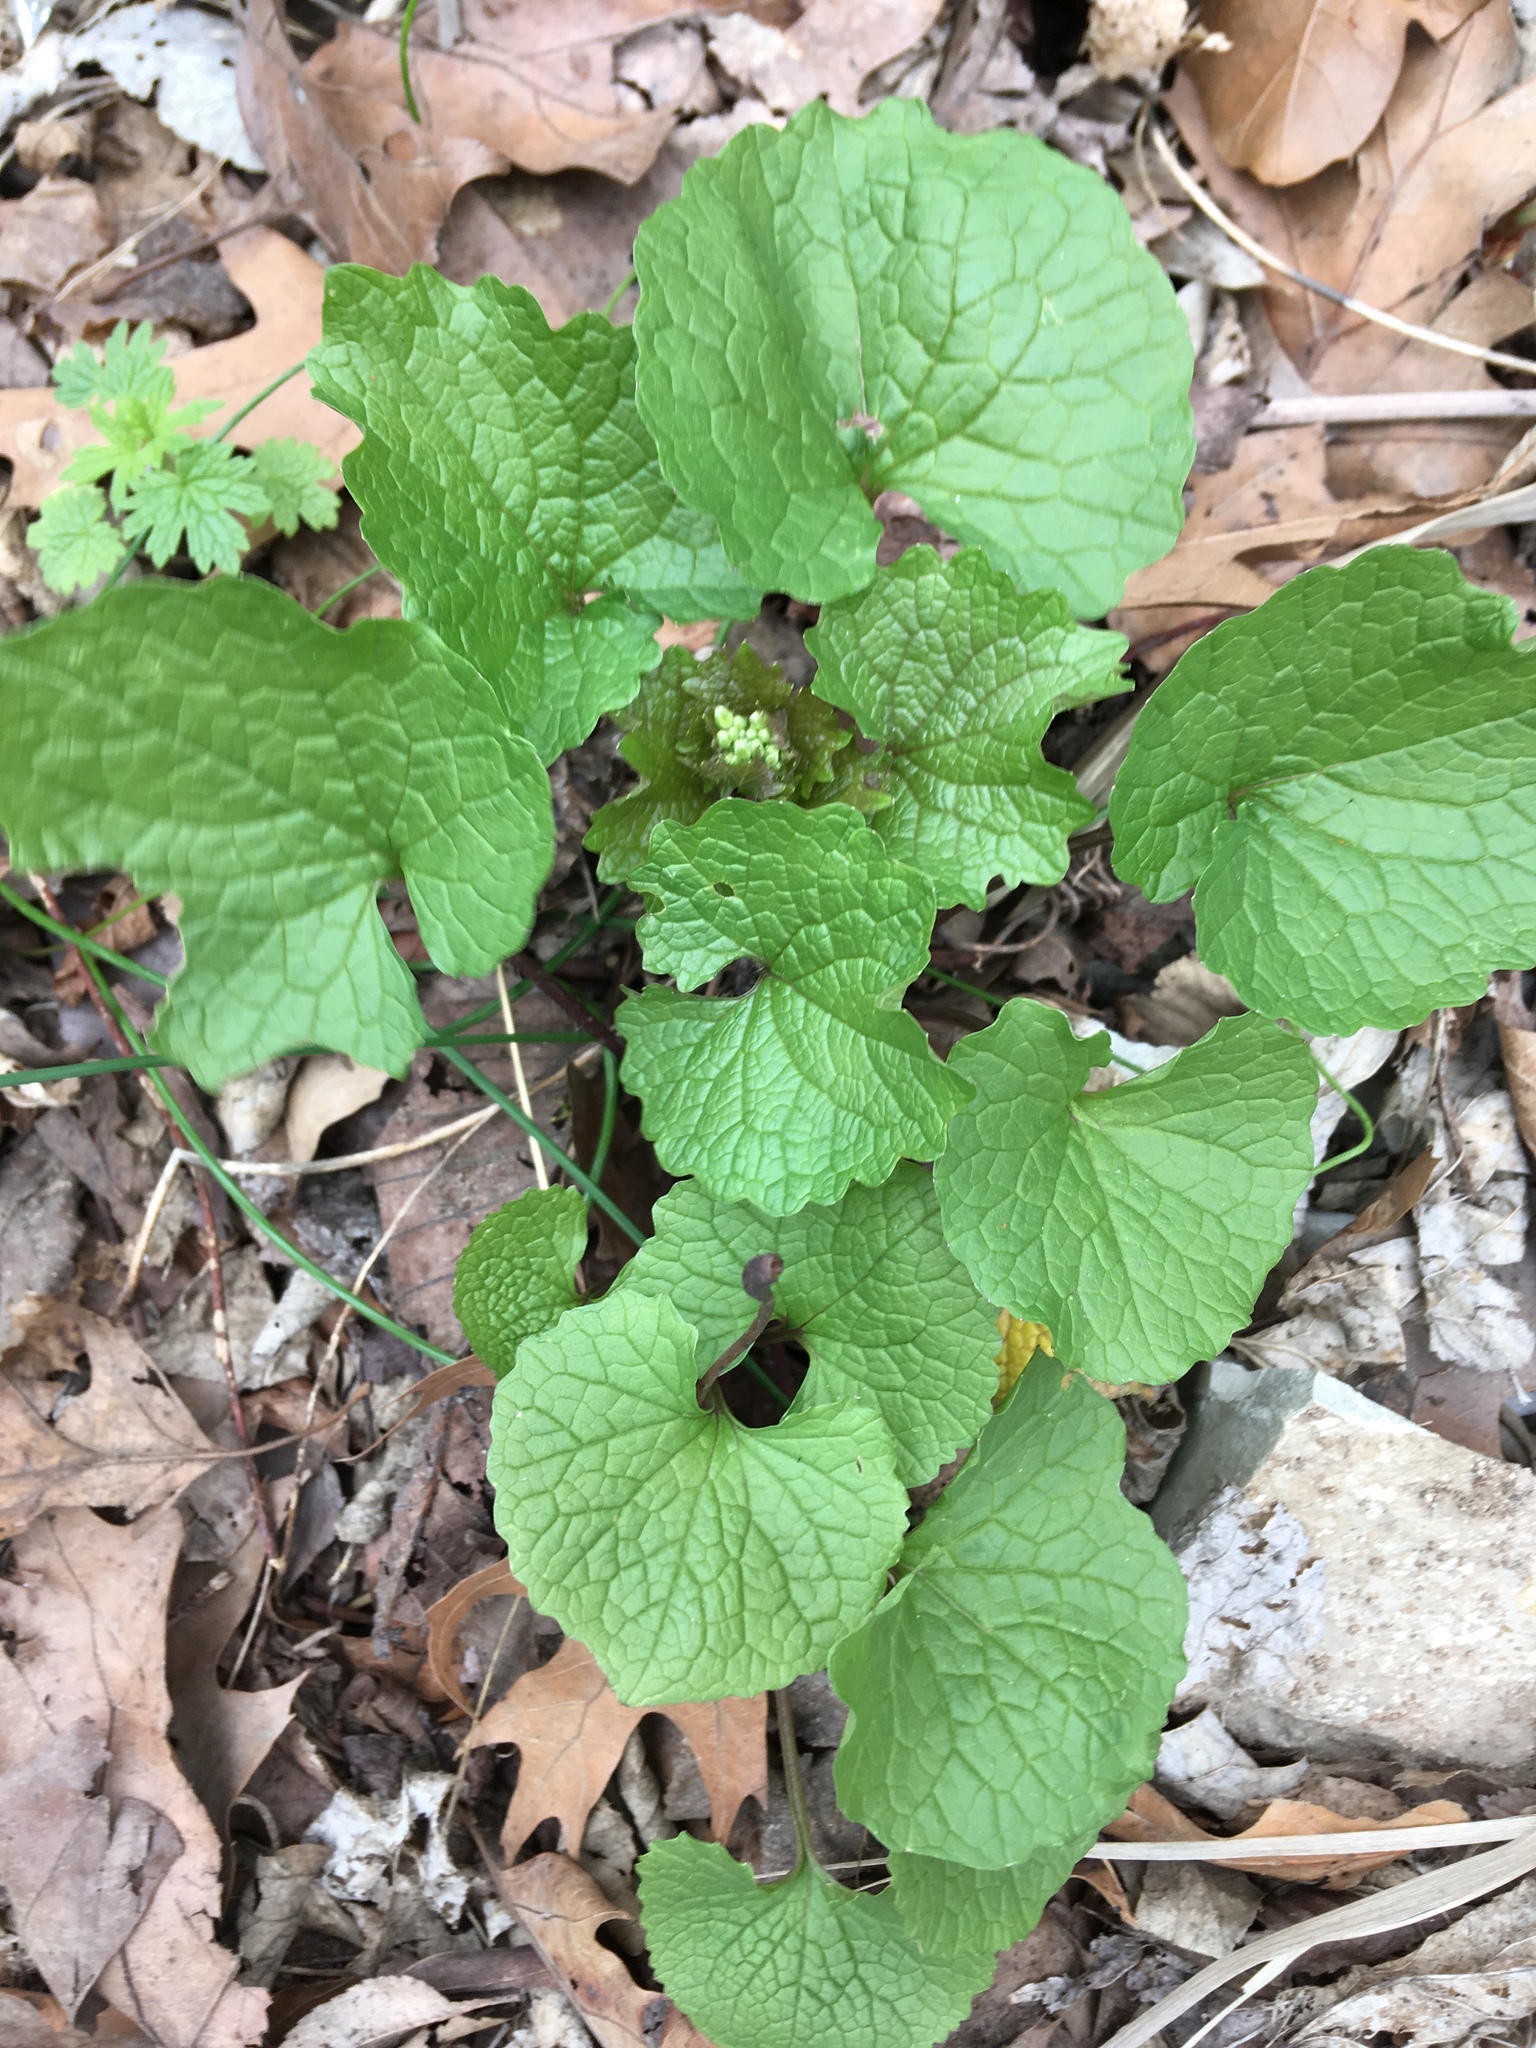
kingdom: Plantae
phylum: Tracheophyta
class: Magnoliopsida
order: Brassicales
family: Brassicaceae
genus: Alliaria
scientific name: Alliaria petiolata
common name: Garlic mustard
